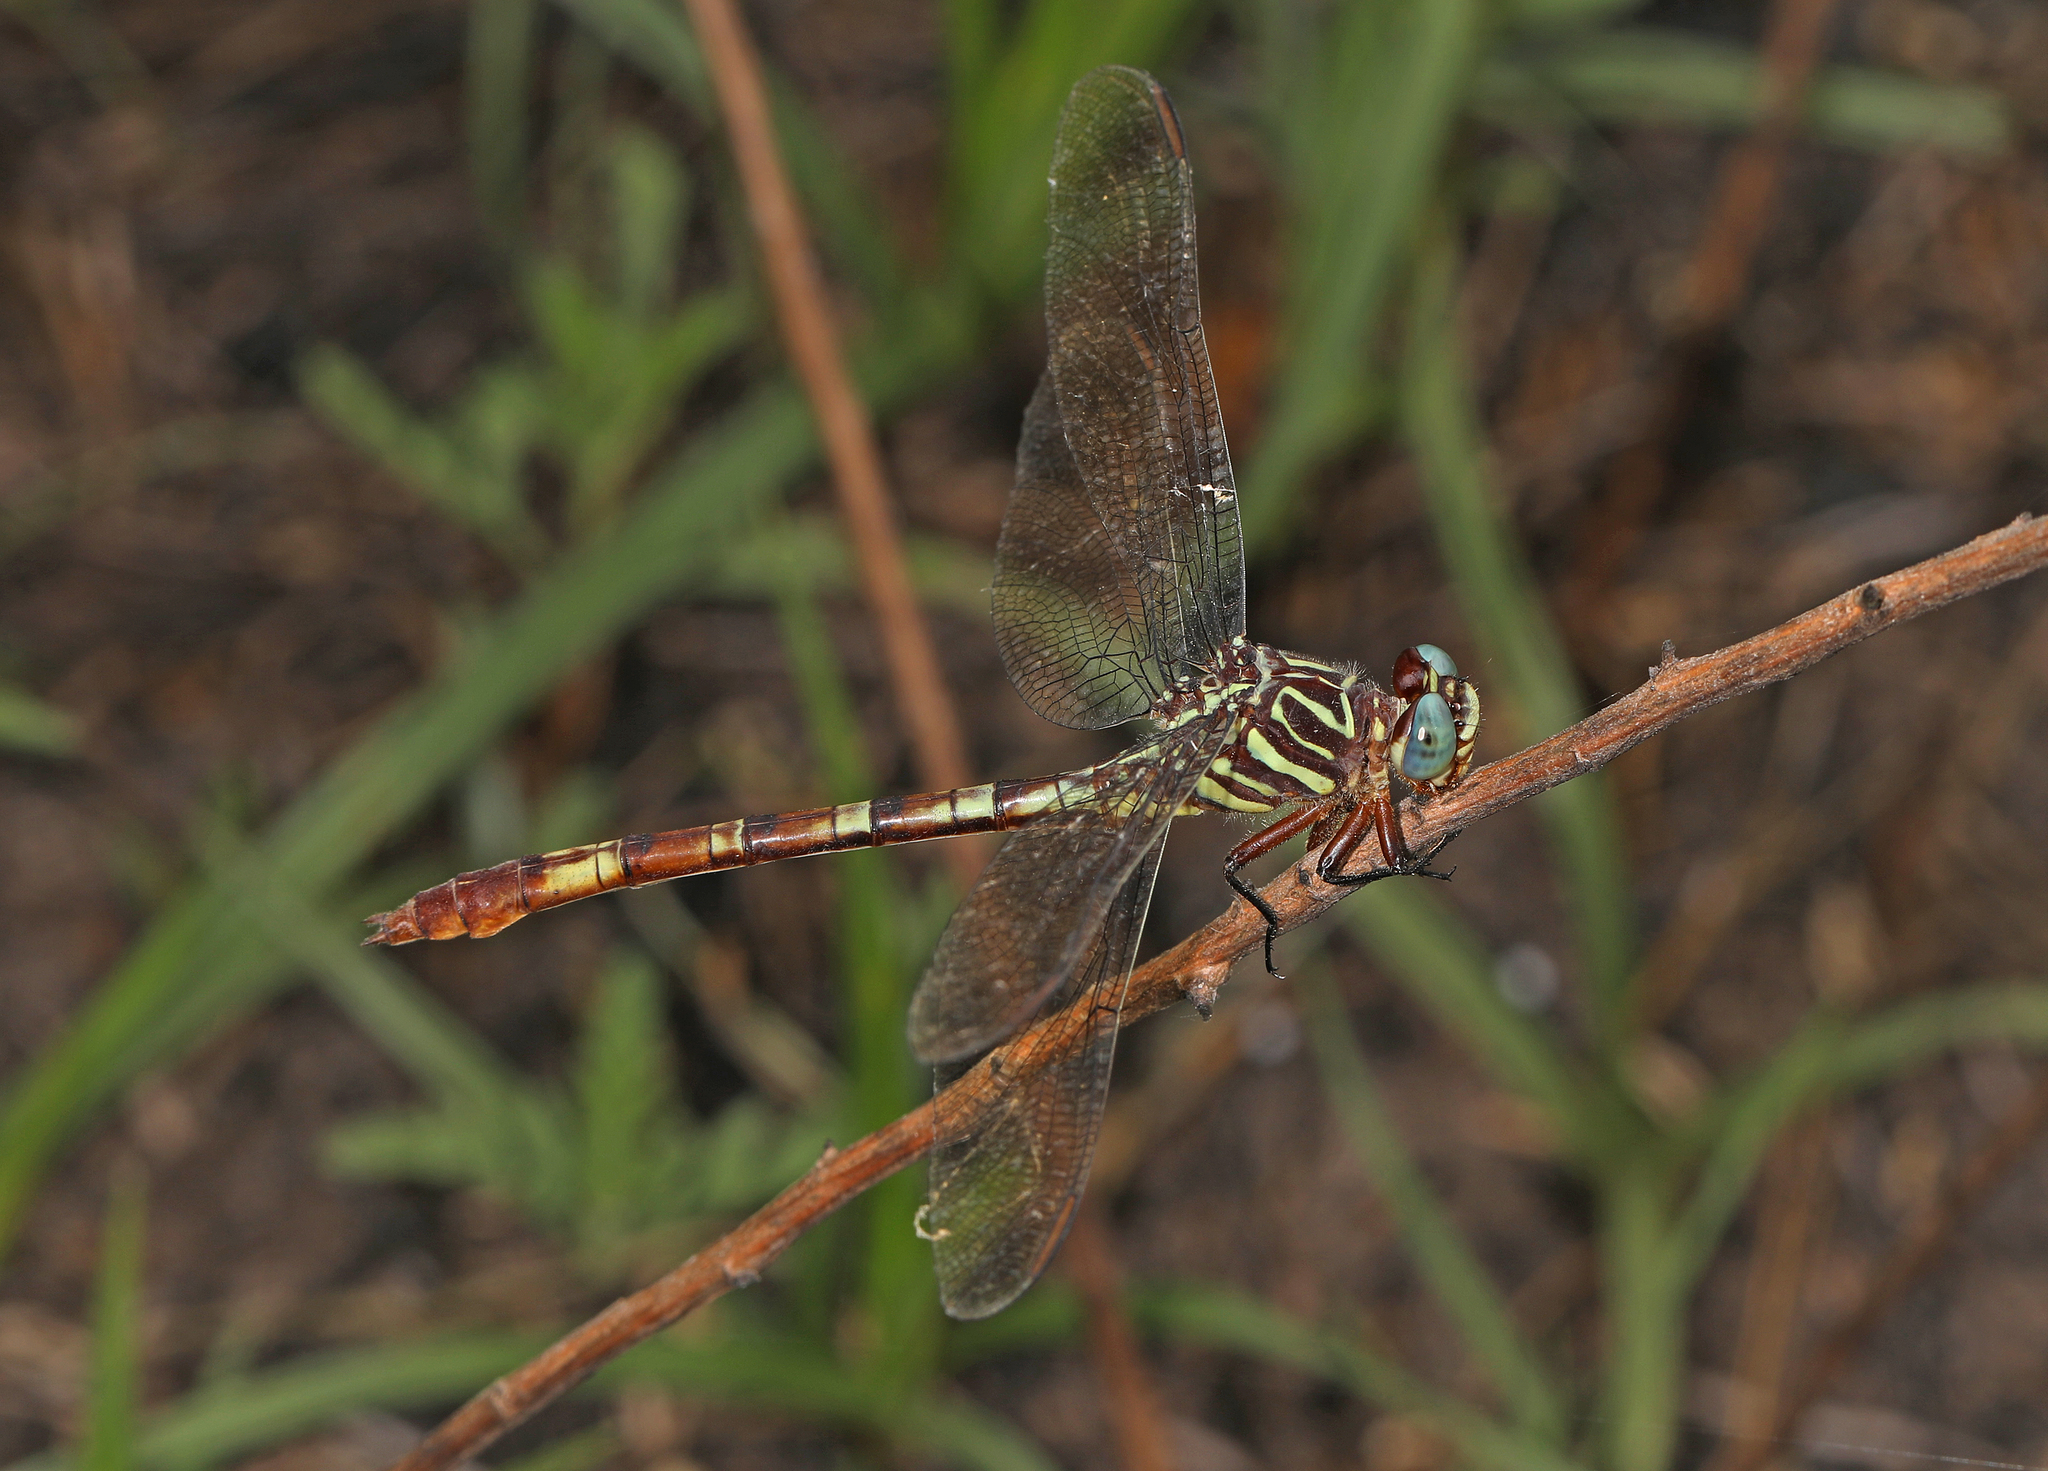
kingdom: Animalia
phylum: Arthropoda
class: Insecta
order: Odonata
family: Gomphidae
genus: Aphylla
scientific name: Aphylla angustifolia
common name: Broad-striped forceptail
